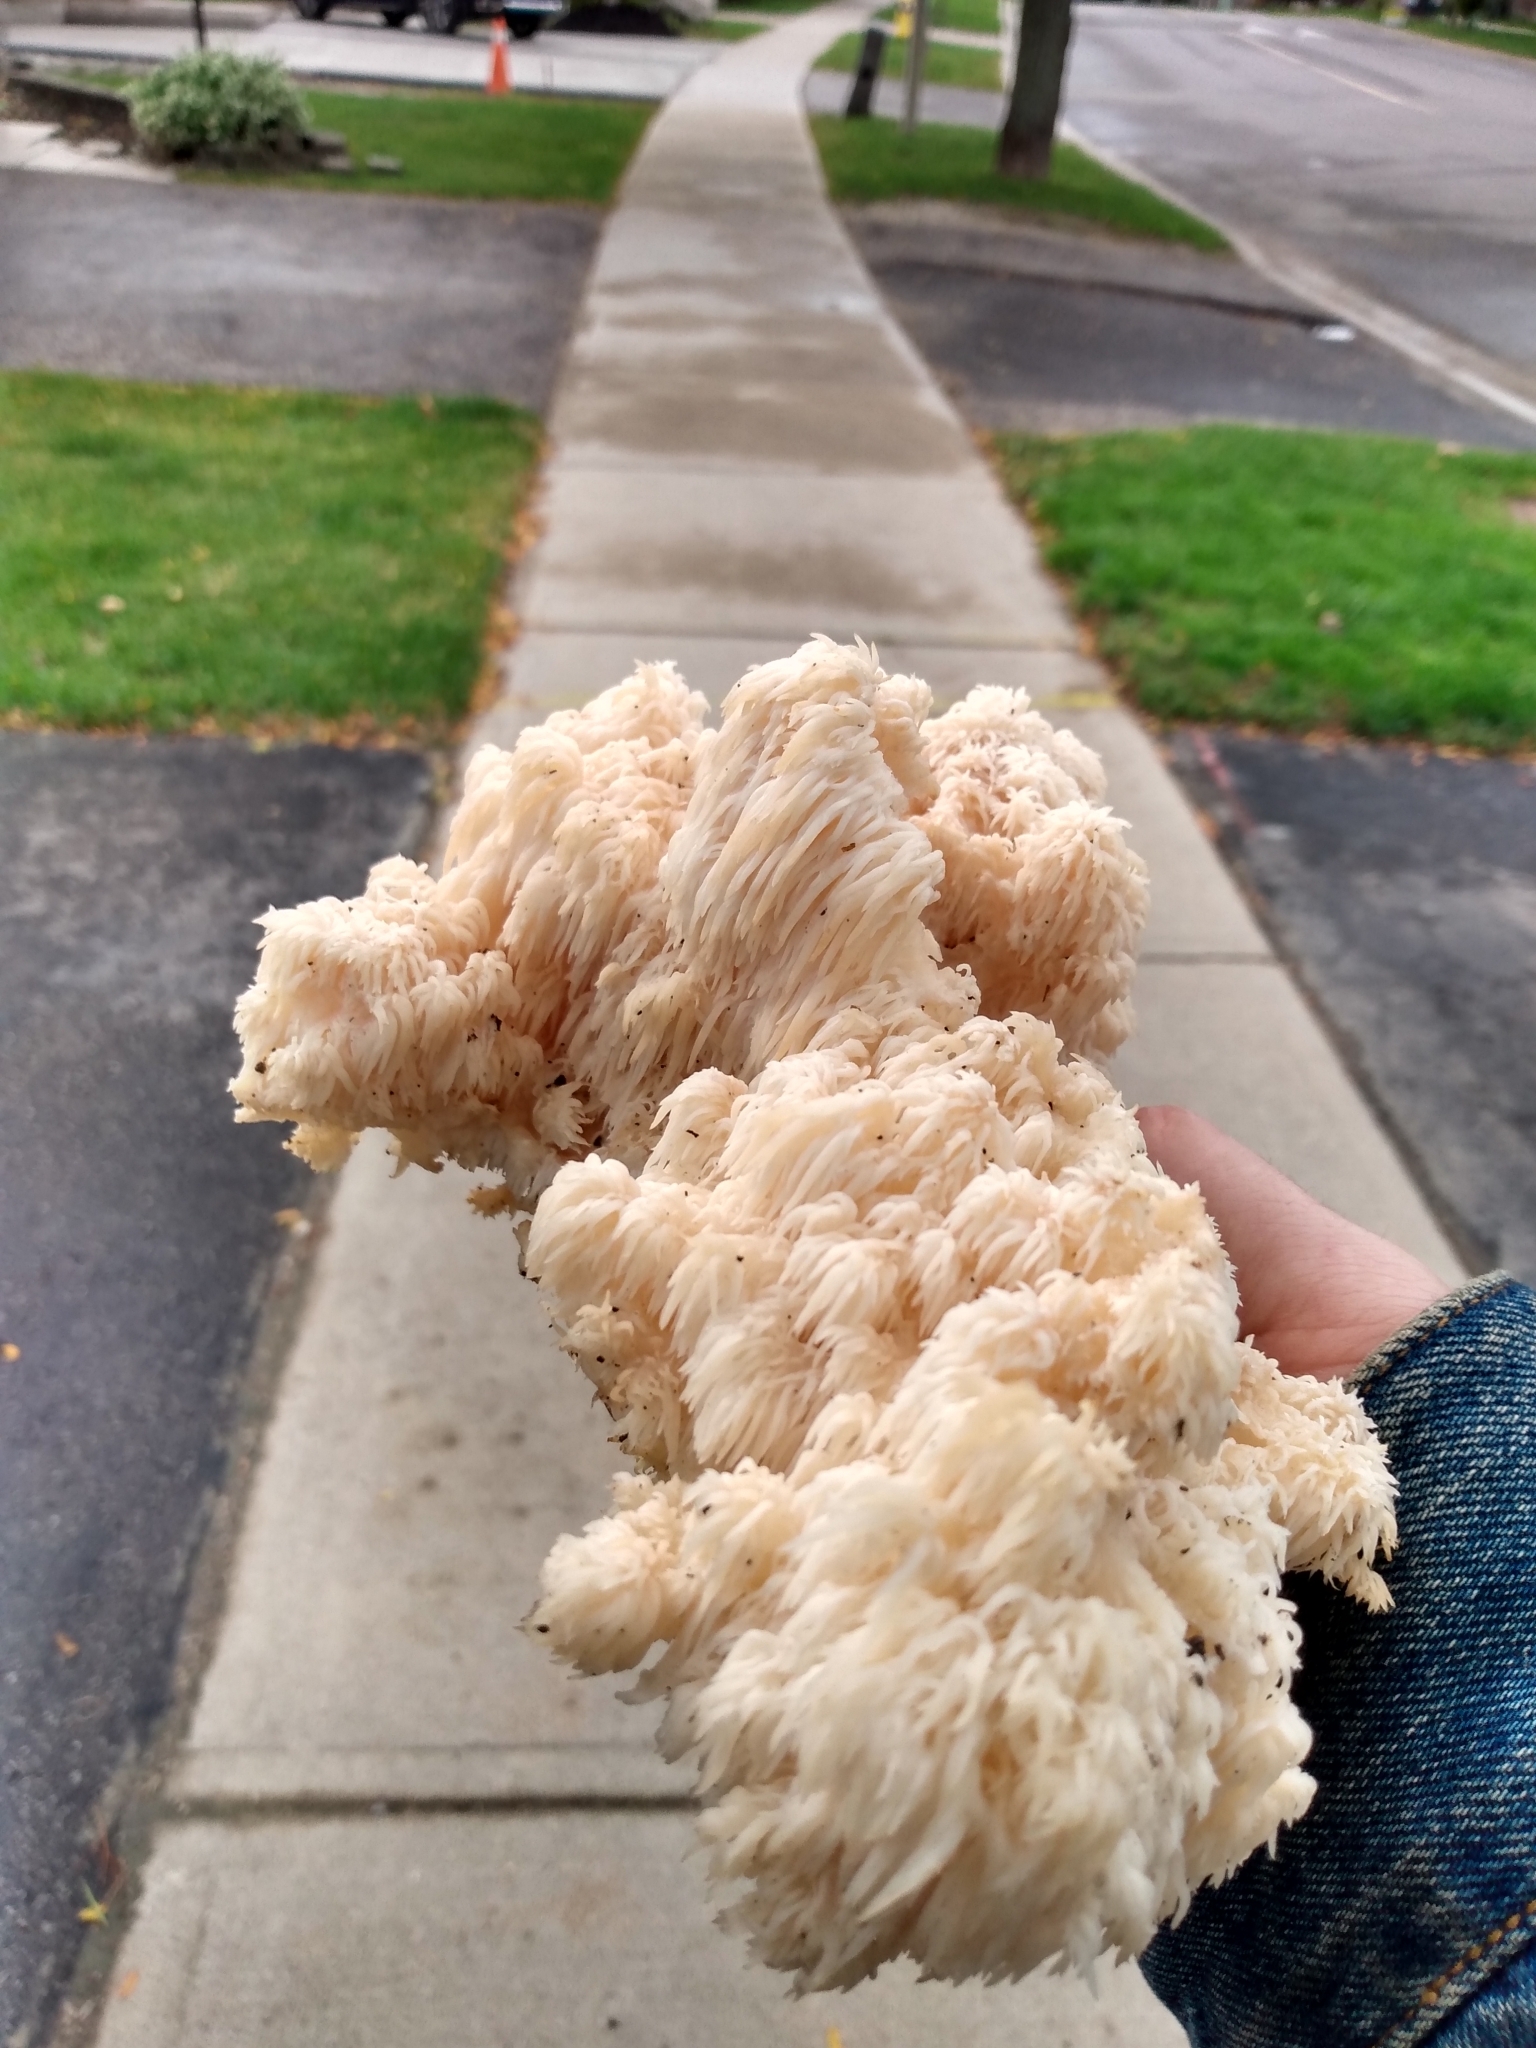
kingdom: Fungi
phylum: Basidiomycota
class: Agaricomycetes
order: Russulales
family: Hericiaceae
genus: Hericium
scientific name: Hericium americanum
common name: Bear's head tooth
